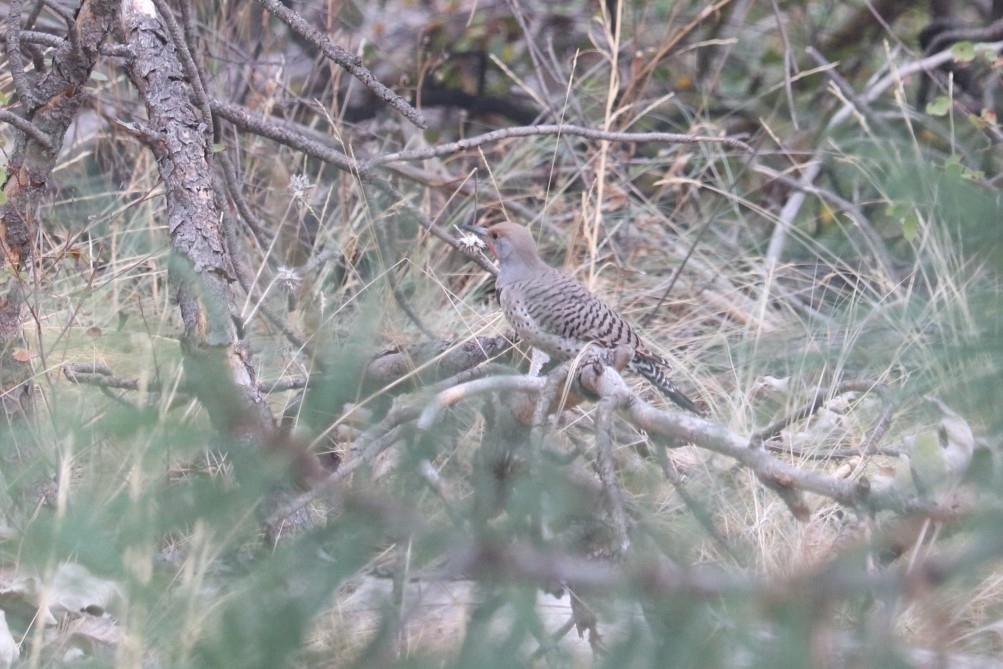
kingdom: Animalia
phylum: Chordata
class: Aves
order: Piciformes
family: Picidae
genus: Colaptes
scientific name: Colaptes auratus
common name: Northern flicker
